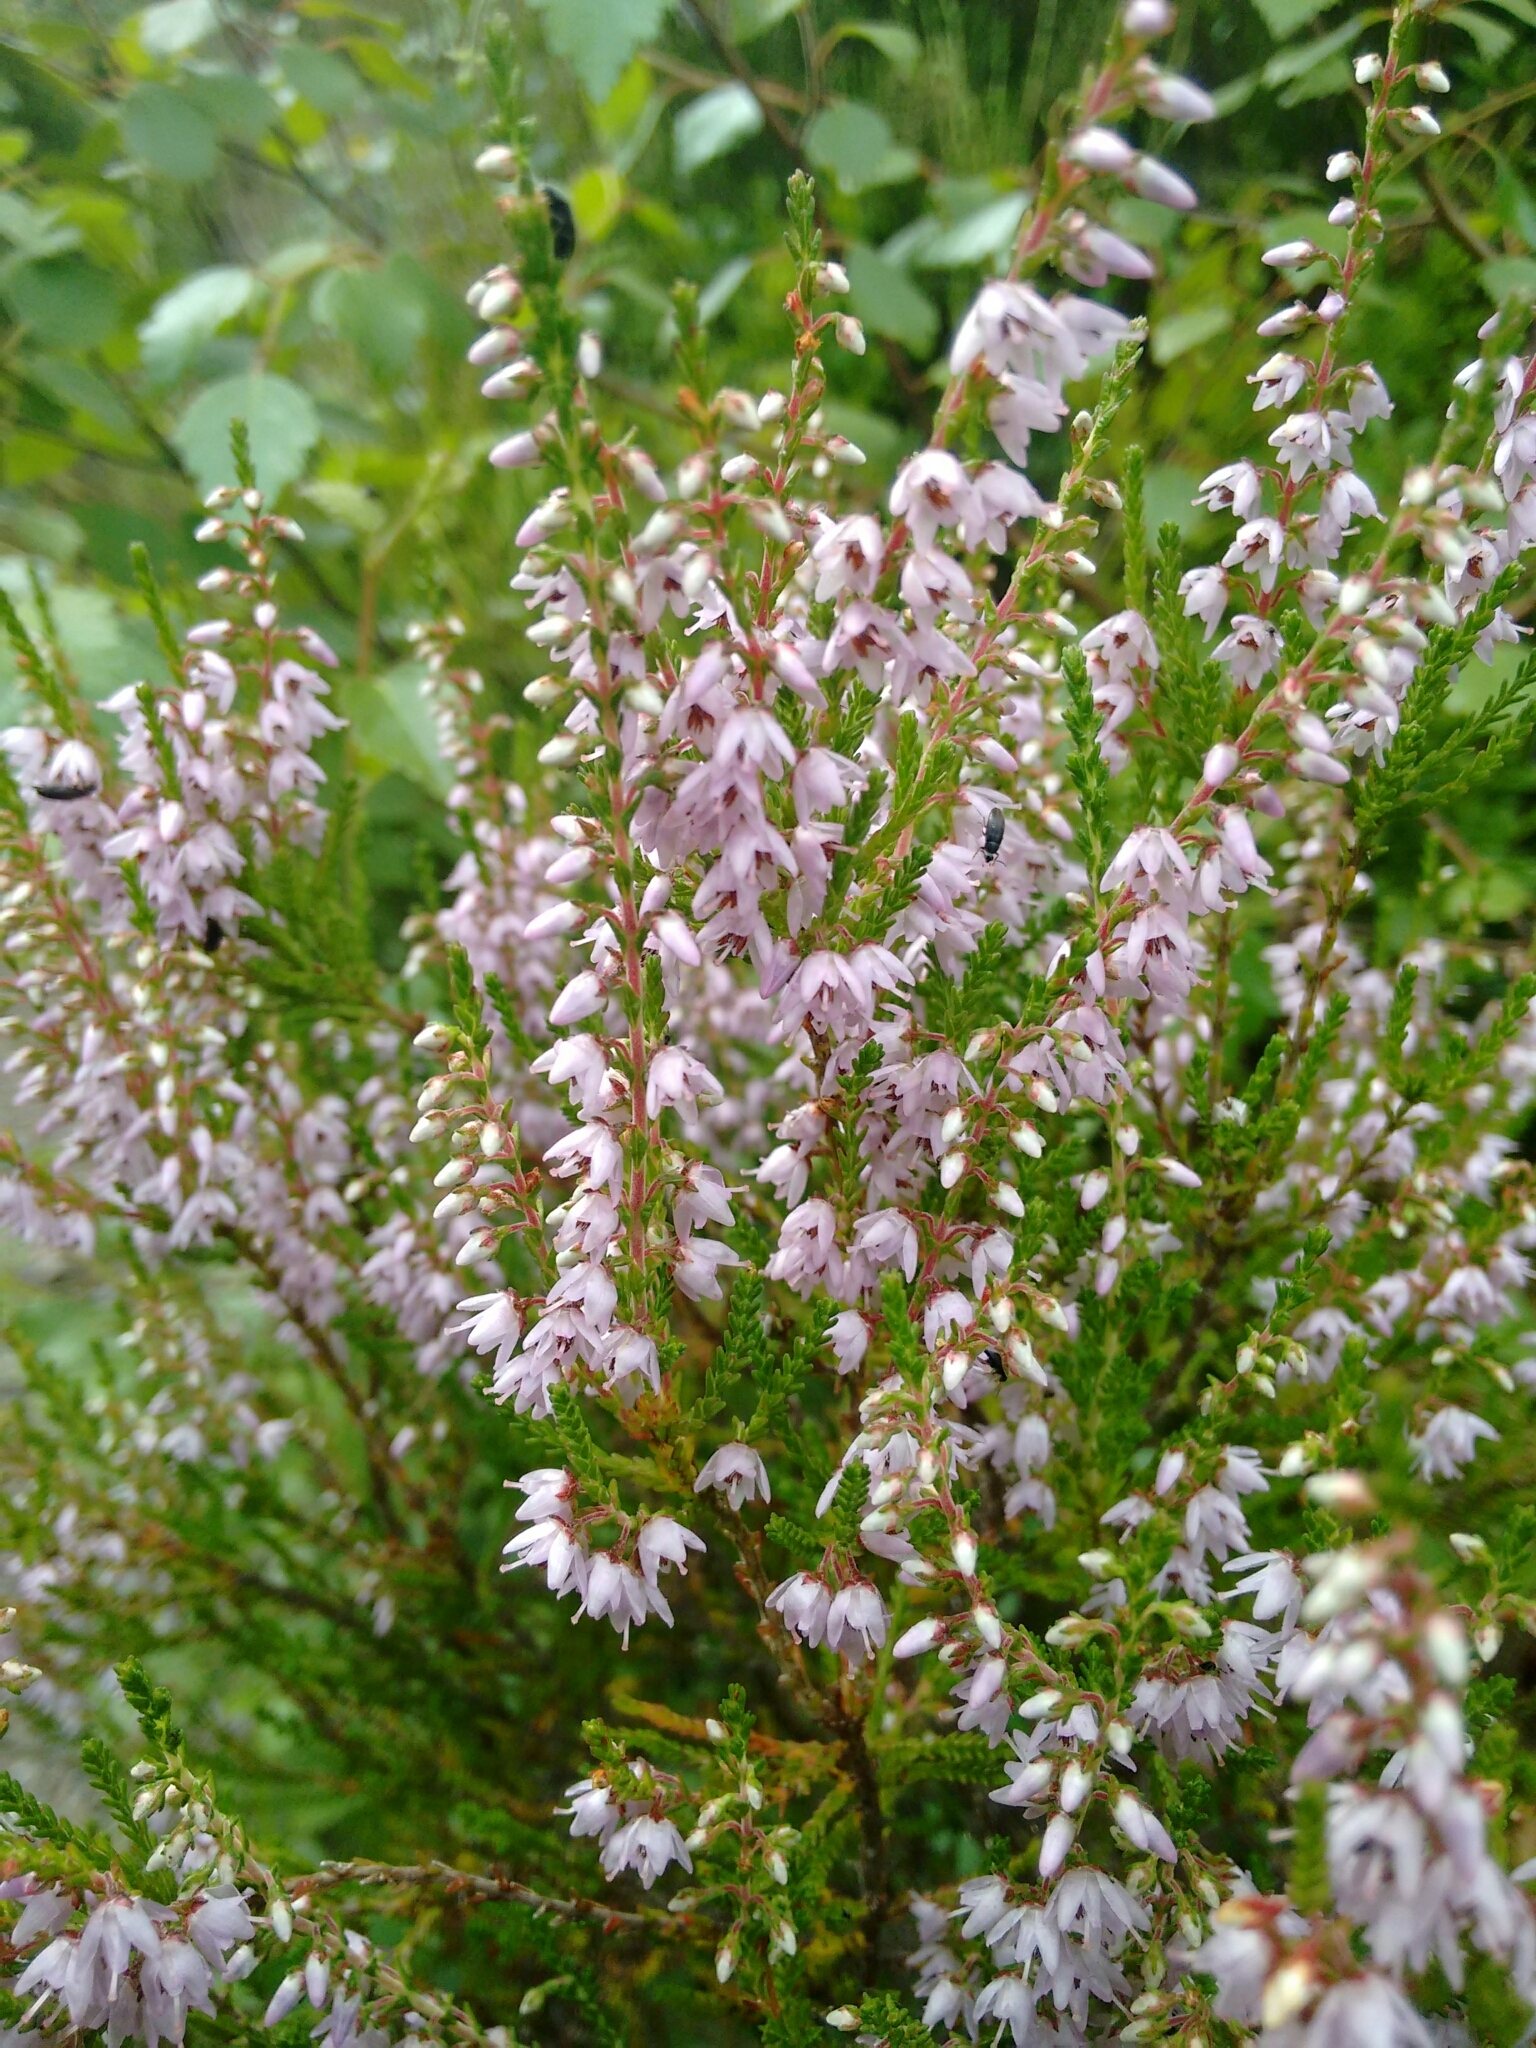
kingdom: Plantae
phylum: Tracheophyta
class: Magnoliopsida
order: Ericales
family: Ericaceae
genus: Calluna
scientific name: Calluna vulgaris
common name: Heather
